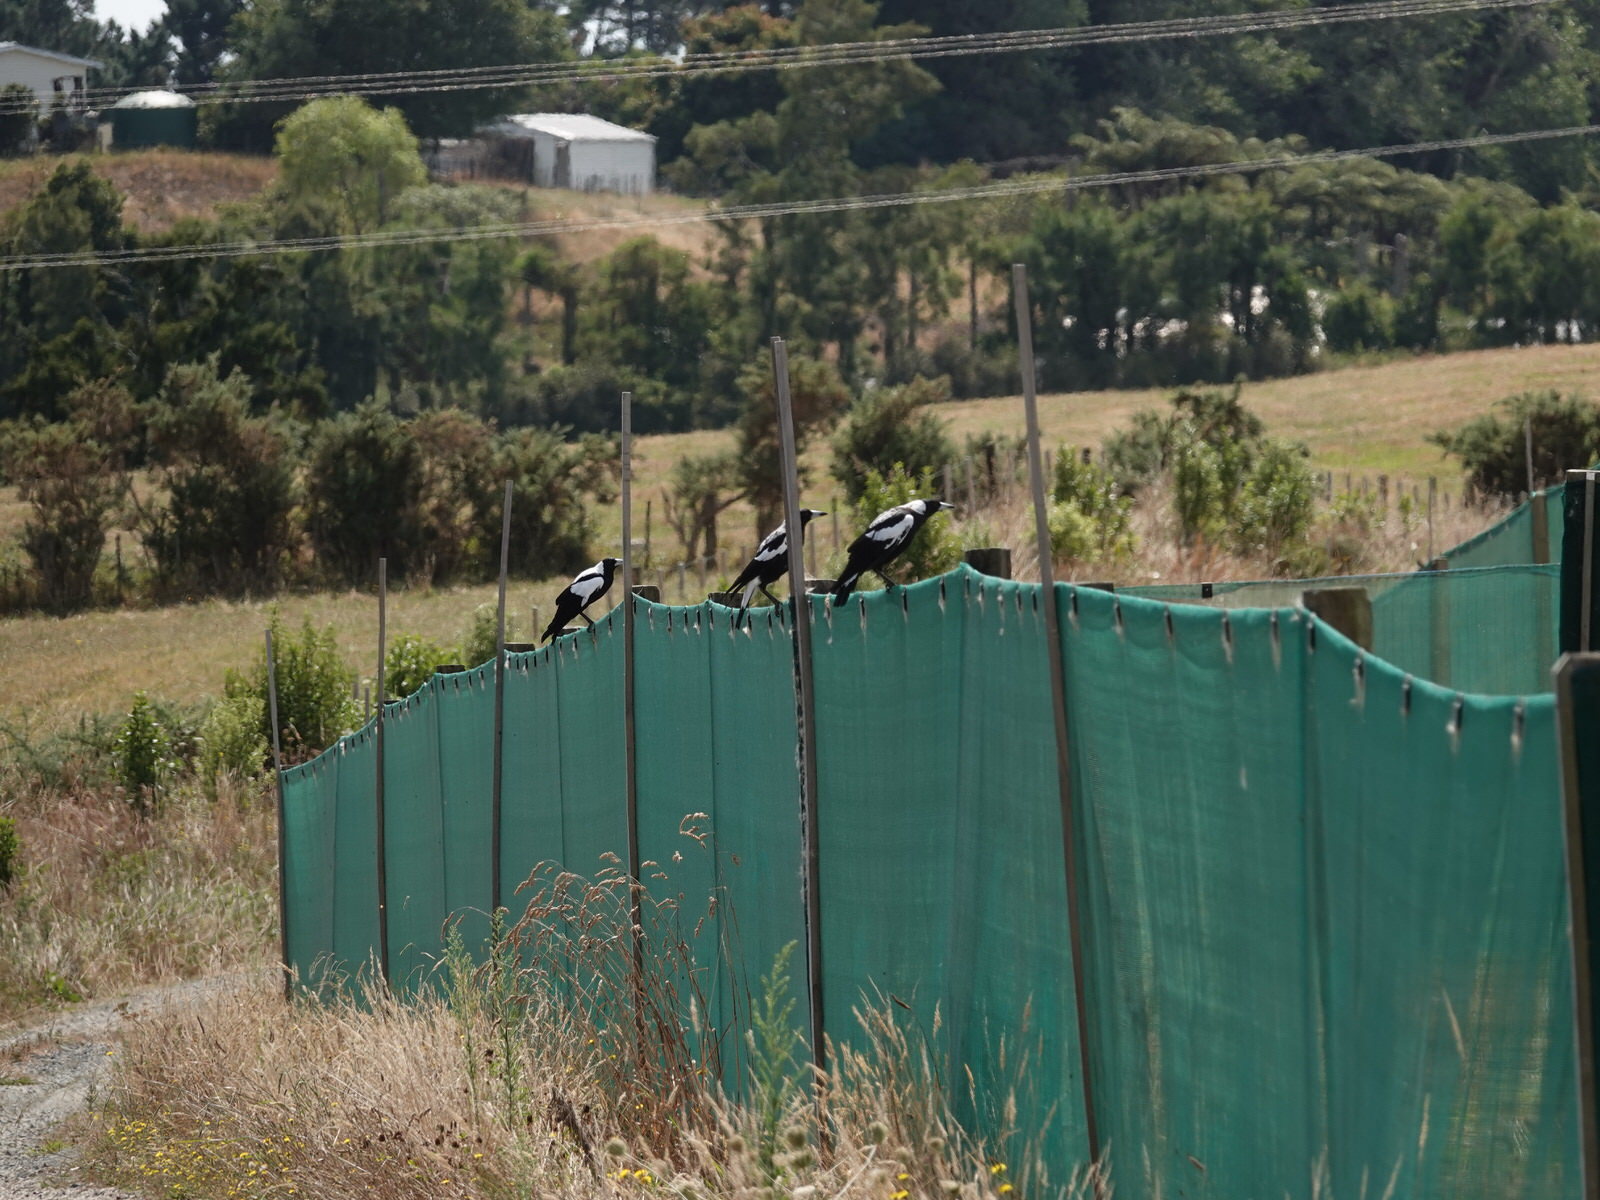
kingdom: Animalia
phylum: Chordata
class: Aves
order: Passeriformes
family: Cracticidae
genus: Gymnorhina
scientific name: Gymnorhina tibicen
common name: Australian magpie
